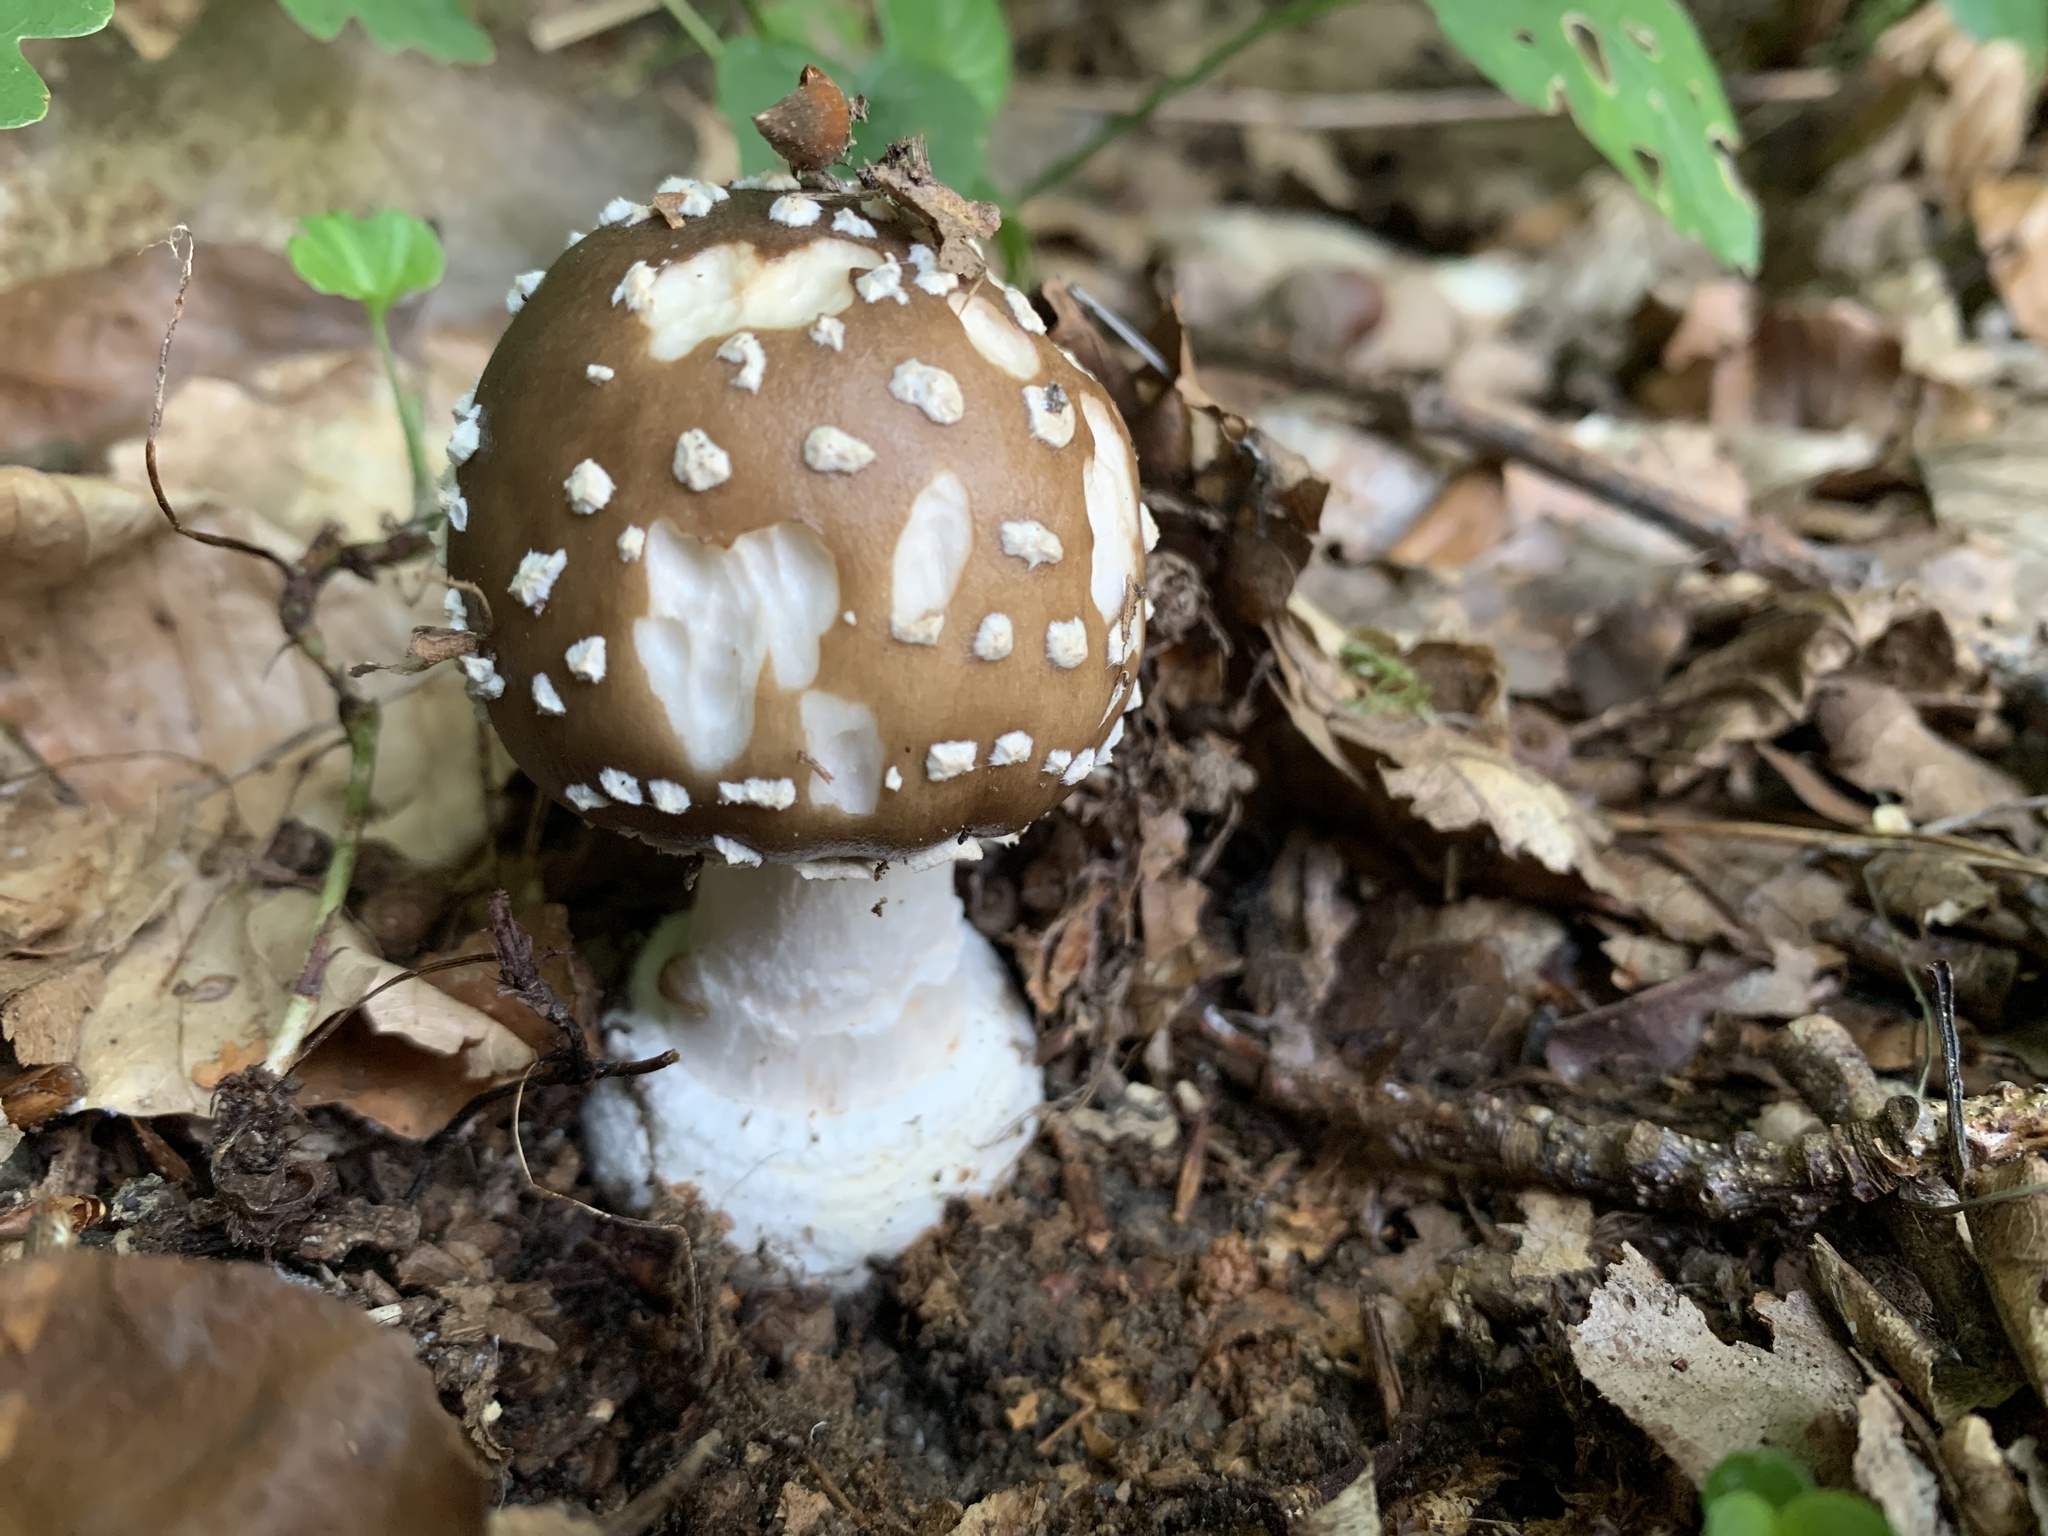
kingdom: Fungi
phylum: Basidiomycota
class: Agaricomycetes
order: Agaricales
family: Amanitaceae
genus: Amanita
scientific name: Amanita pantherina
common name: Panthercap
